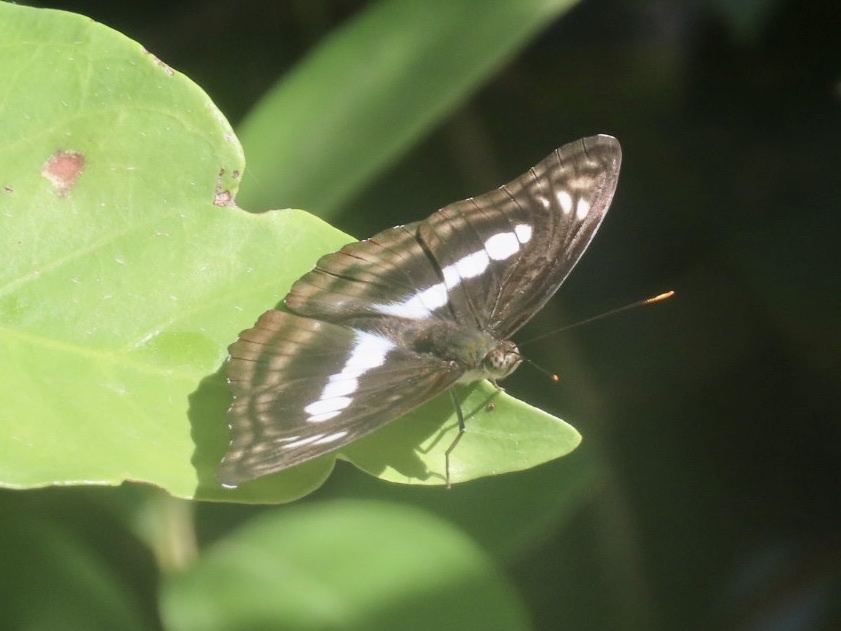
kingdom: Animalia
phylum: Arthropoda
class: Insecta
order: Lepidoptera
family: Nymphalidae
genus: Parathyma
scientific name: Parathyma selenophora
